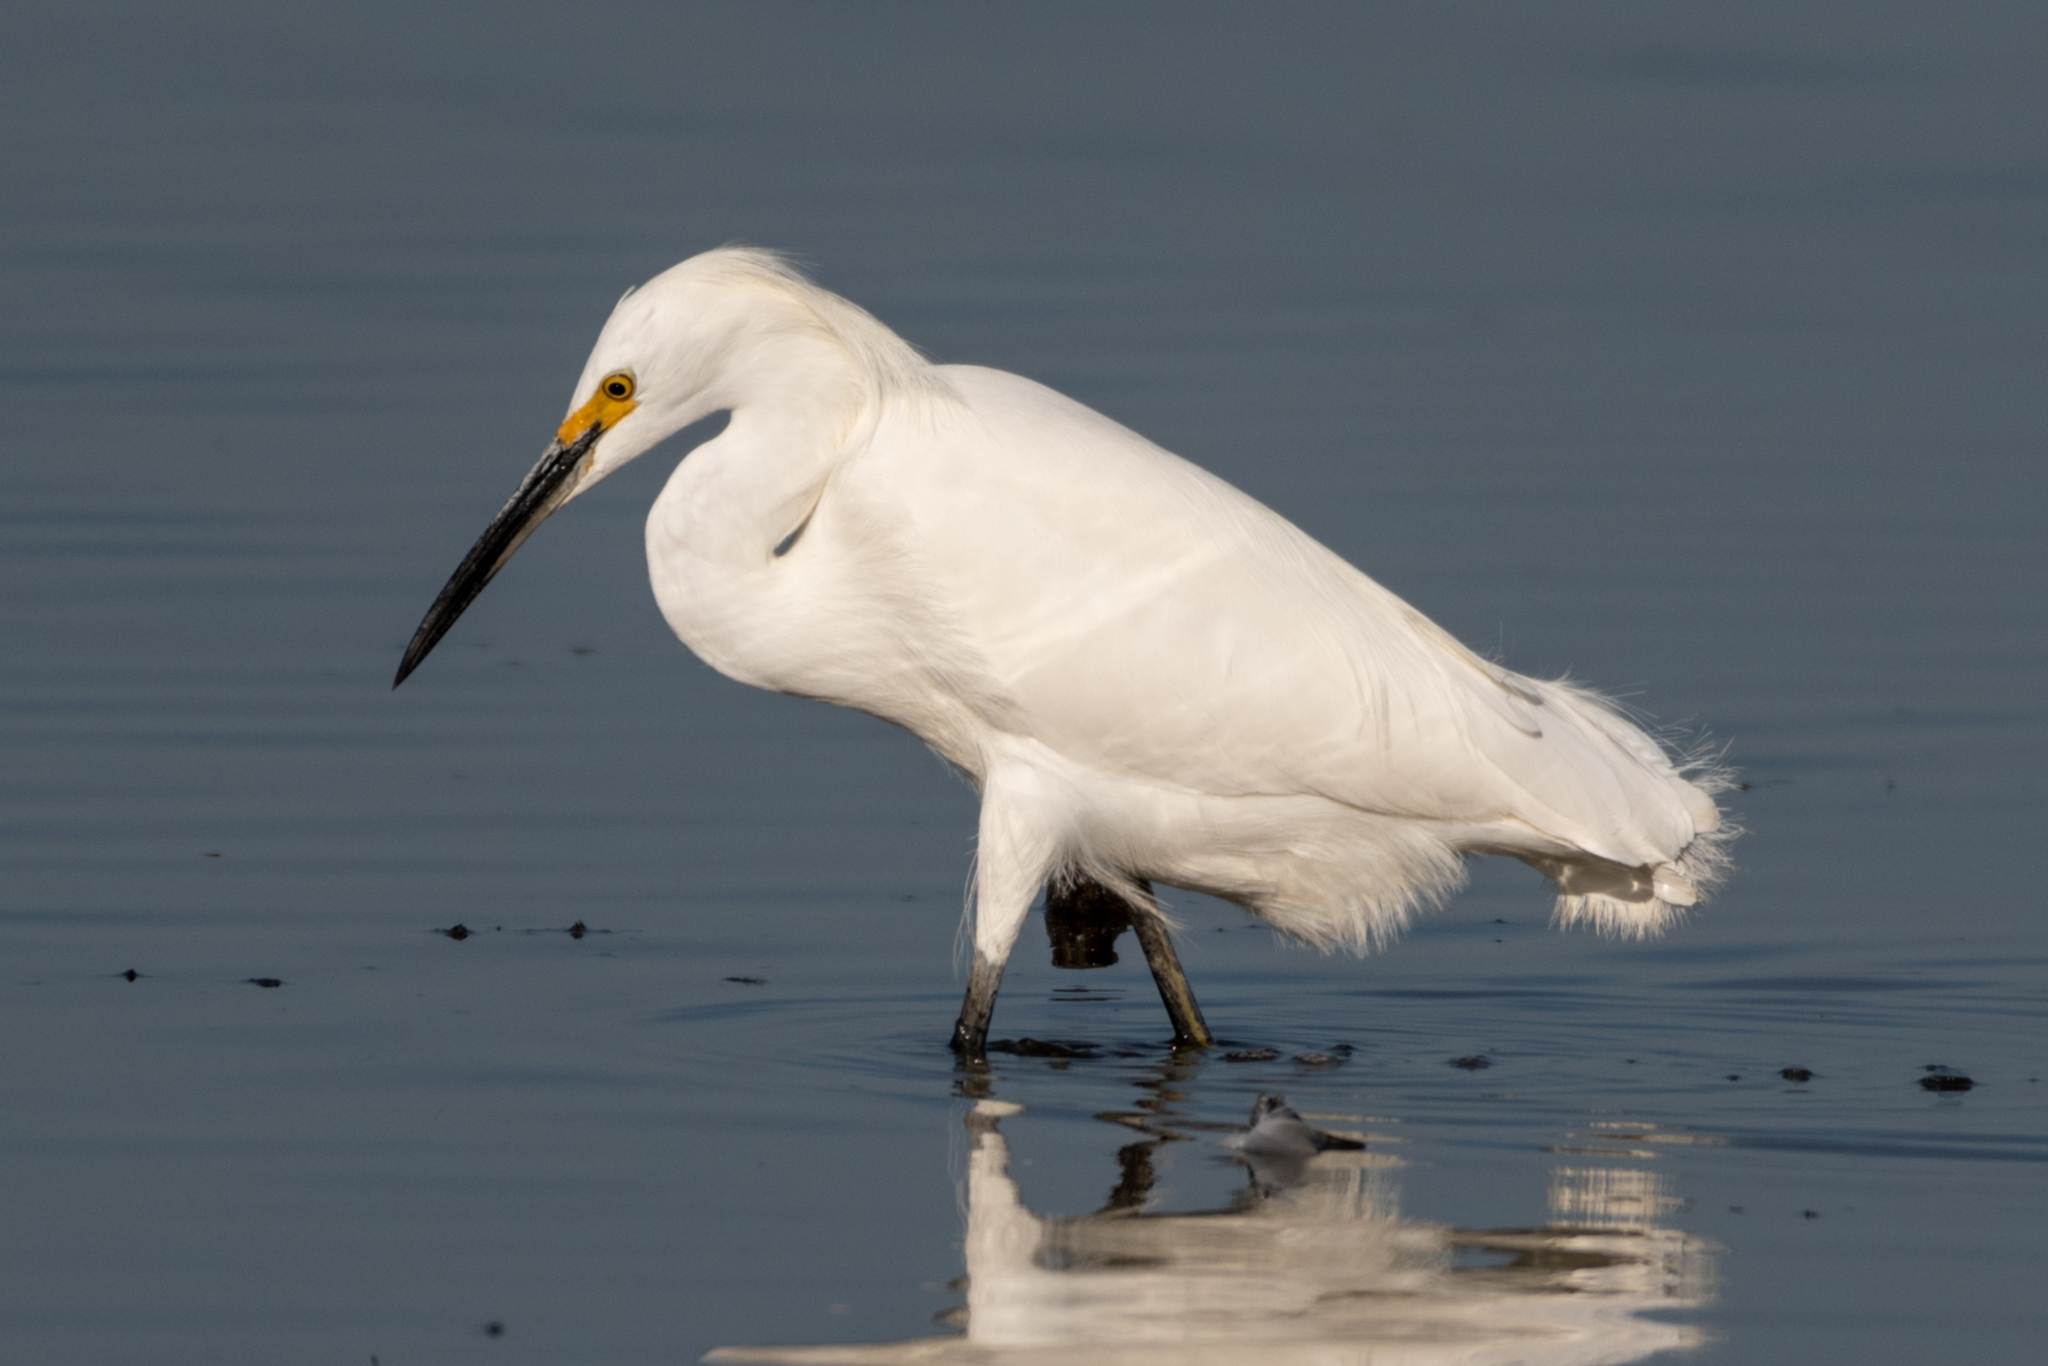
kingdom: Animalia
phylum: Chordata
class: Aves
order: Pelecaniformes
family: Ardeidae
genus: Egretta
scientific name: Egretta thula
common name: Snowy egret
